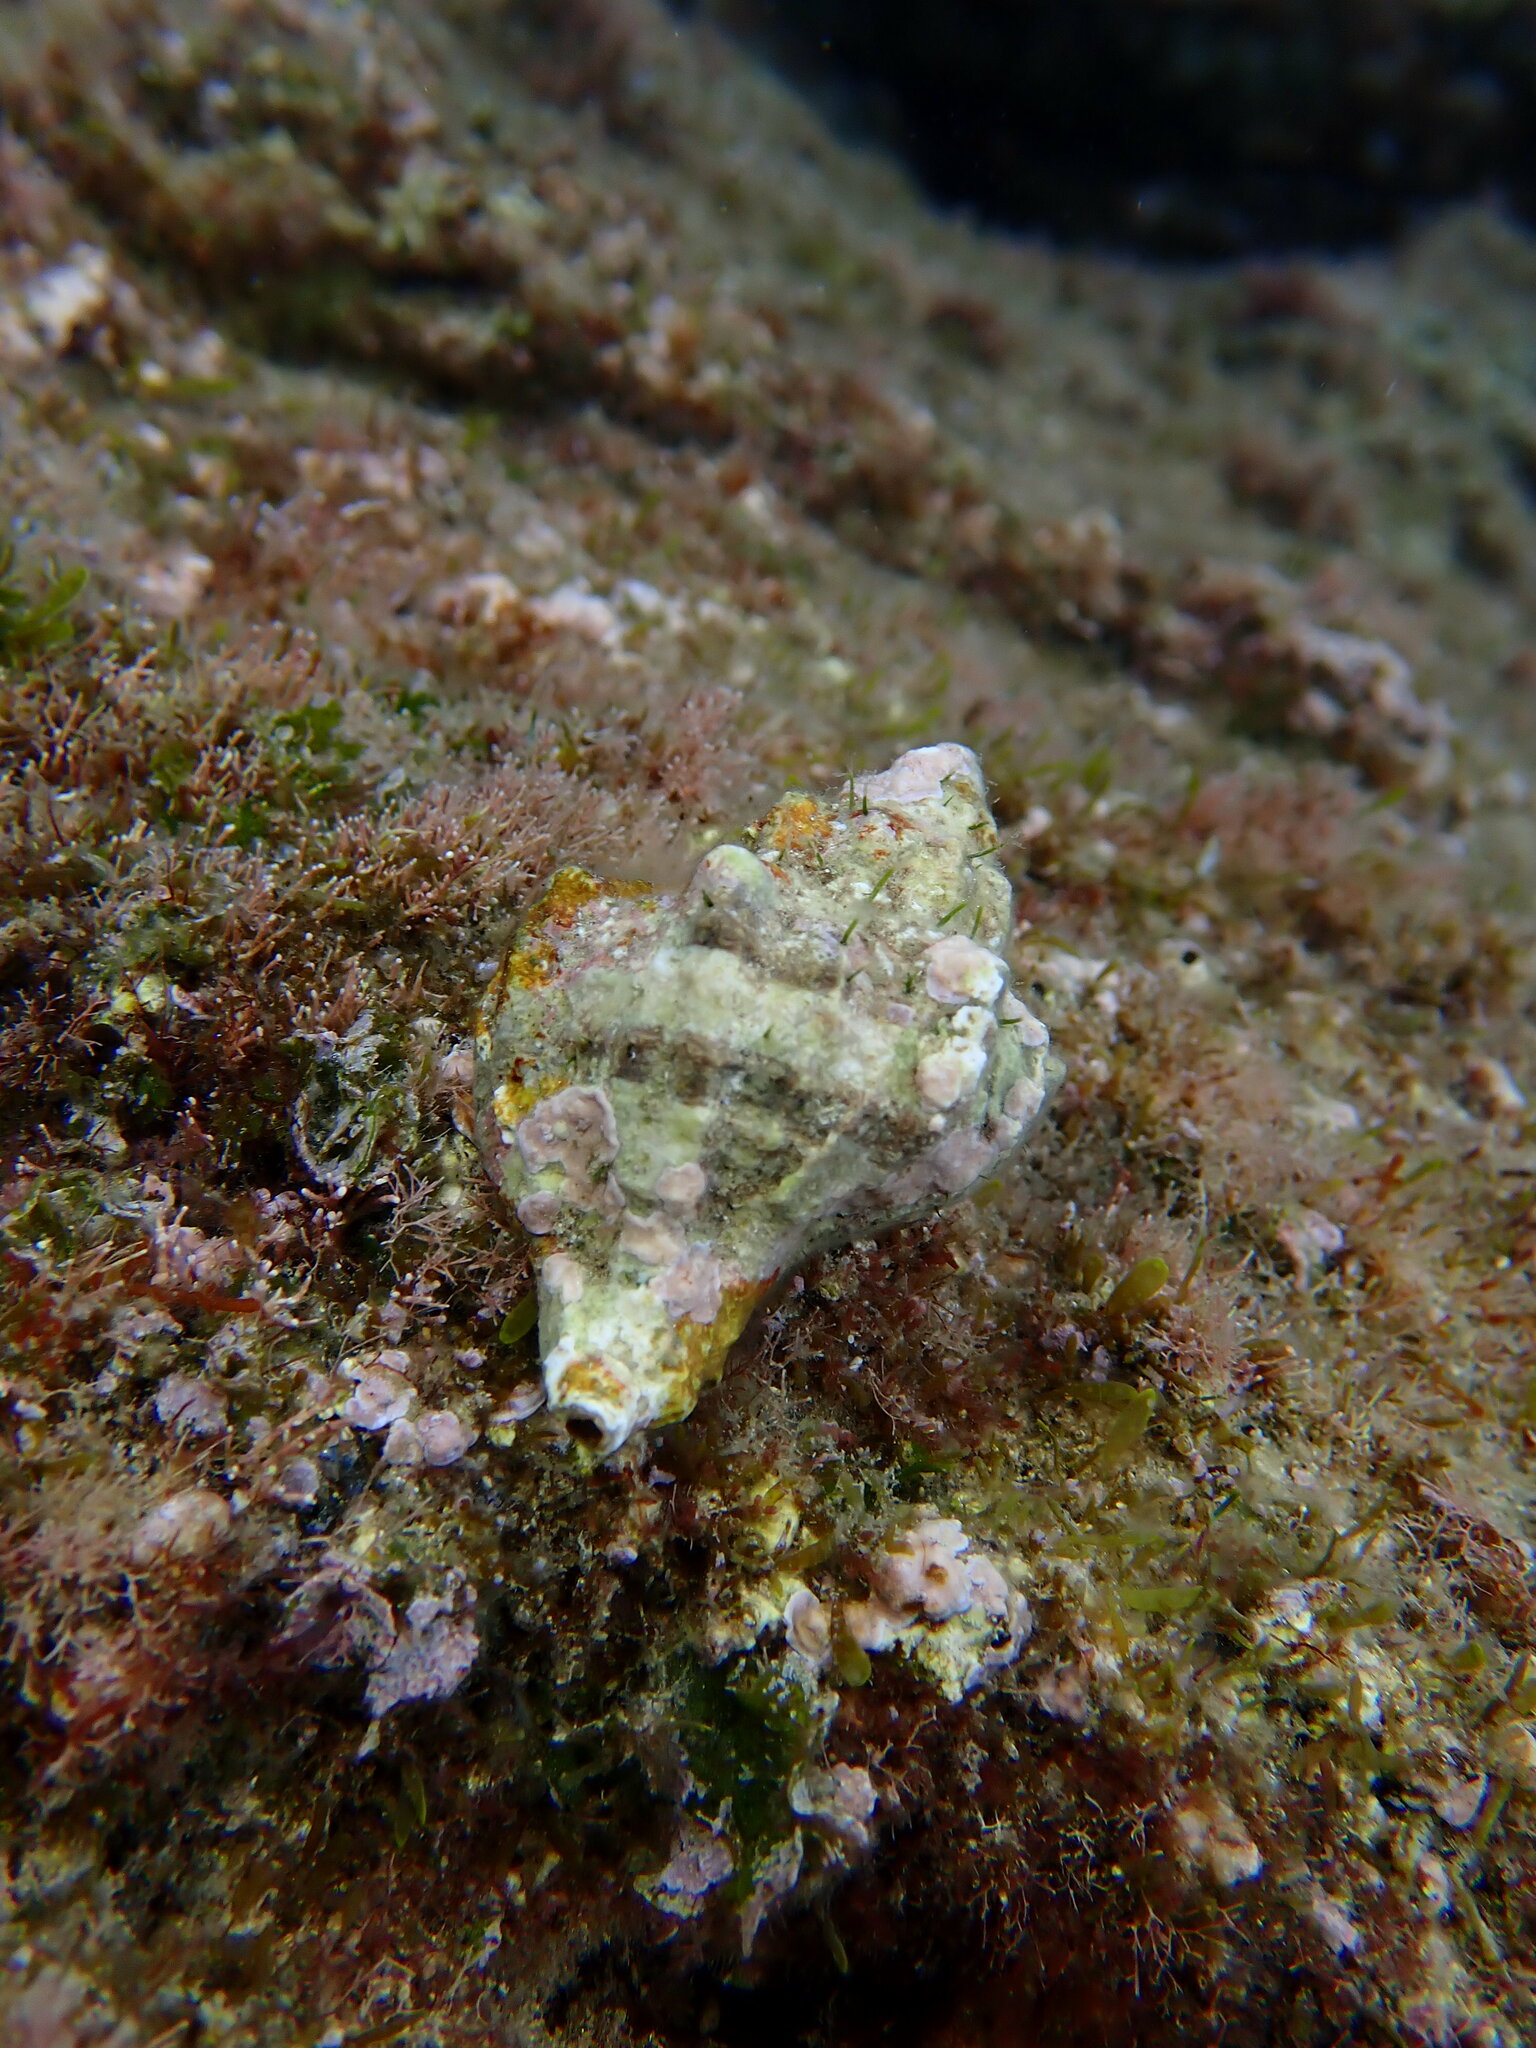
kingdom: Animalia
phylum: Mollusca
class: Gastropoda
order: Neogastropoda
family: Muricidae
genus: Hexaplex
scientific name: Hexaplex trunculus
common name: Banded dye-murex
